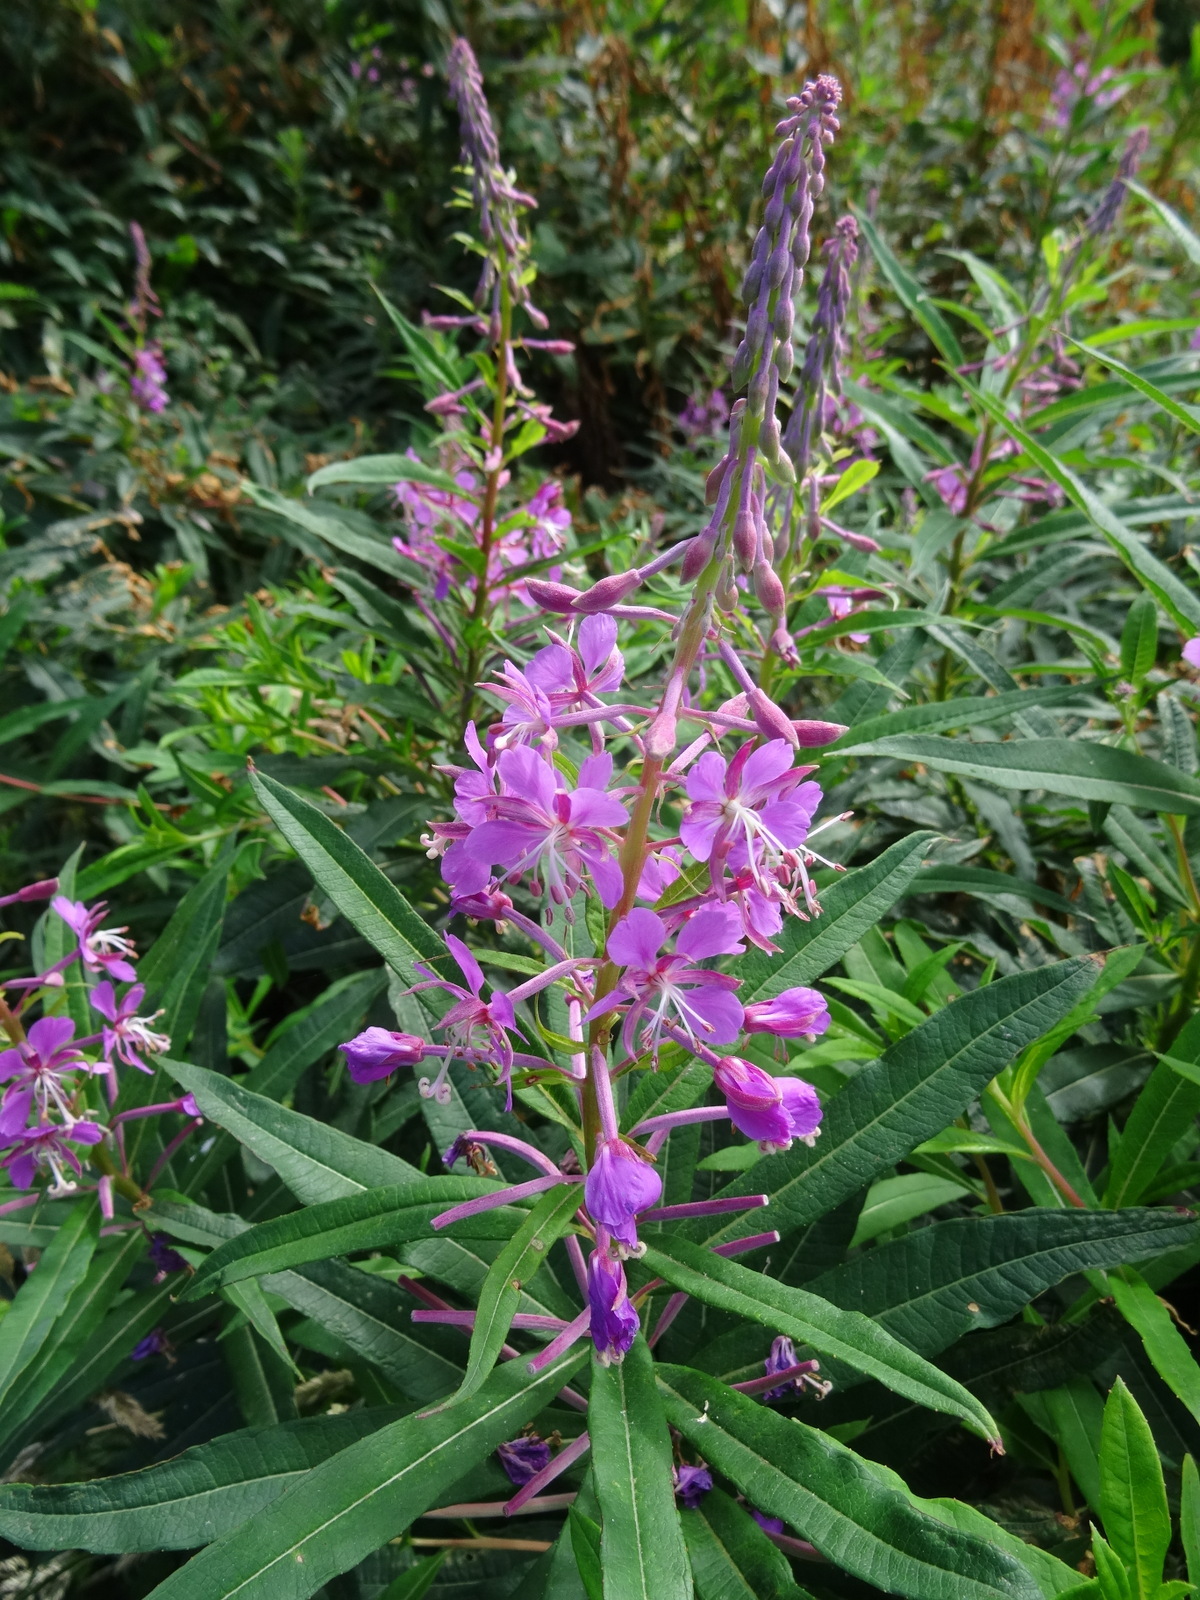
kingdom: Plantae
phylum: Tracheophyta
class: Magnoliopsida
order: Myrtales
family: Onagraceae
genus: Chamaenerion
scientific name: Chamaenerion angustifolium
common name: Fireweed
